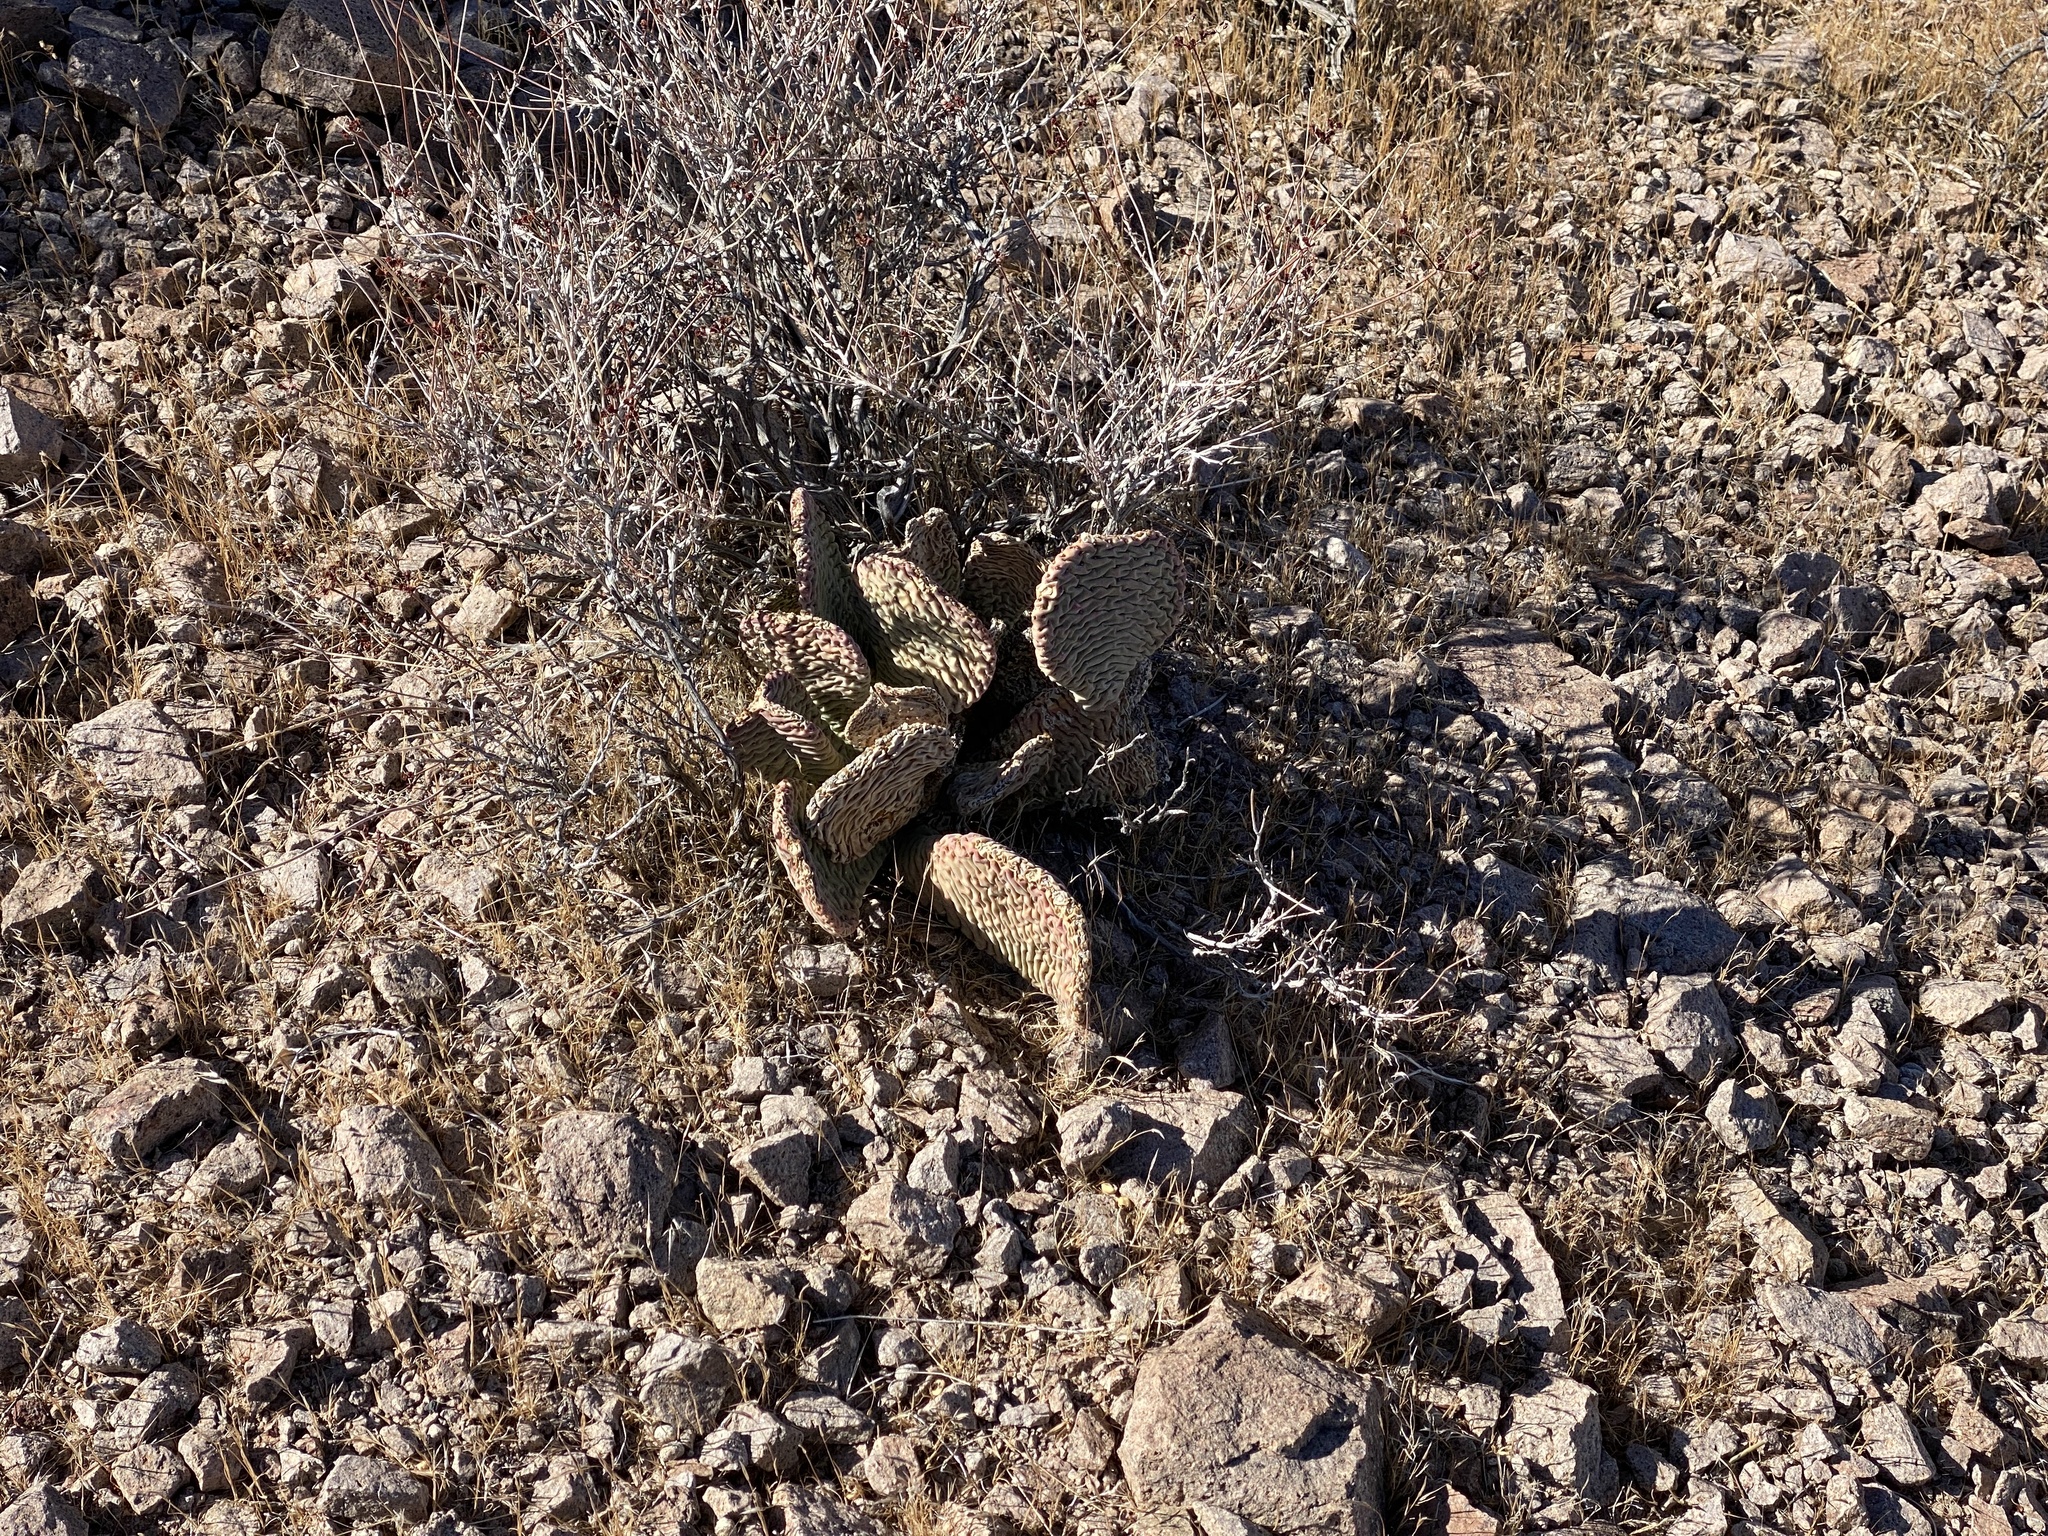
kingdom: Plantae
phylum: Tracheophyta
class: Magnoliopsida
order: Caryophyllales
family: Cactaceae
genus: Opuntia
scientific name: Opuntia basilaris
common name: Beavertail prickly-pear
